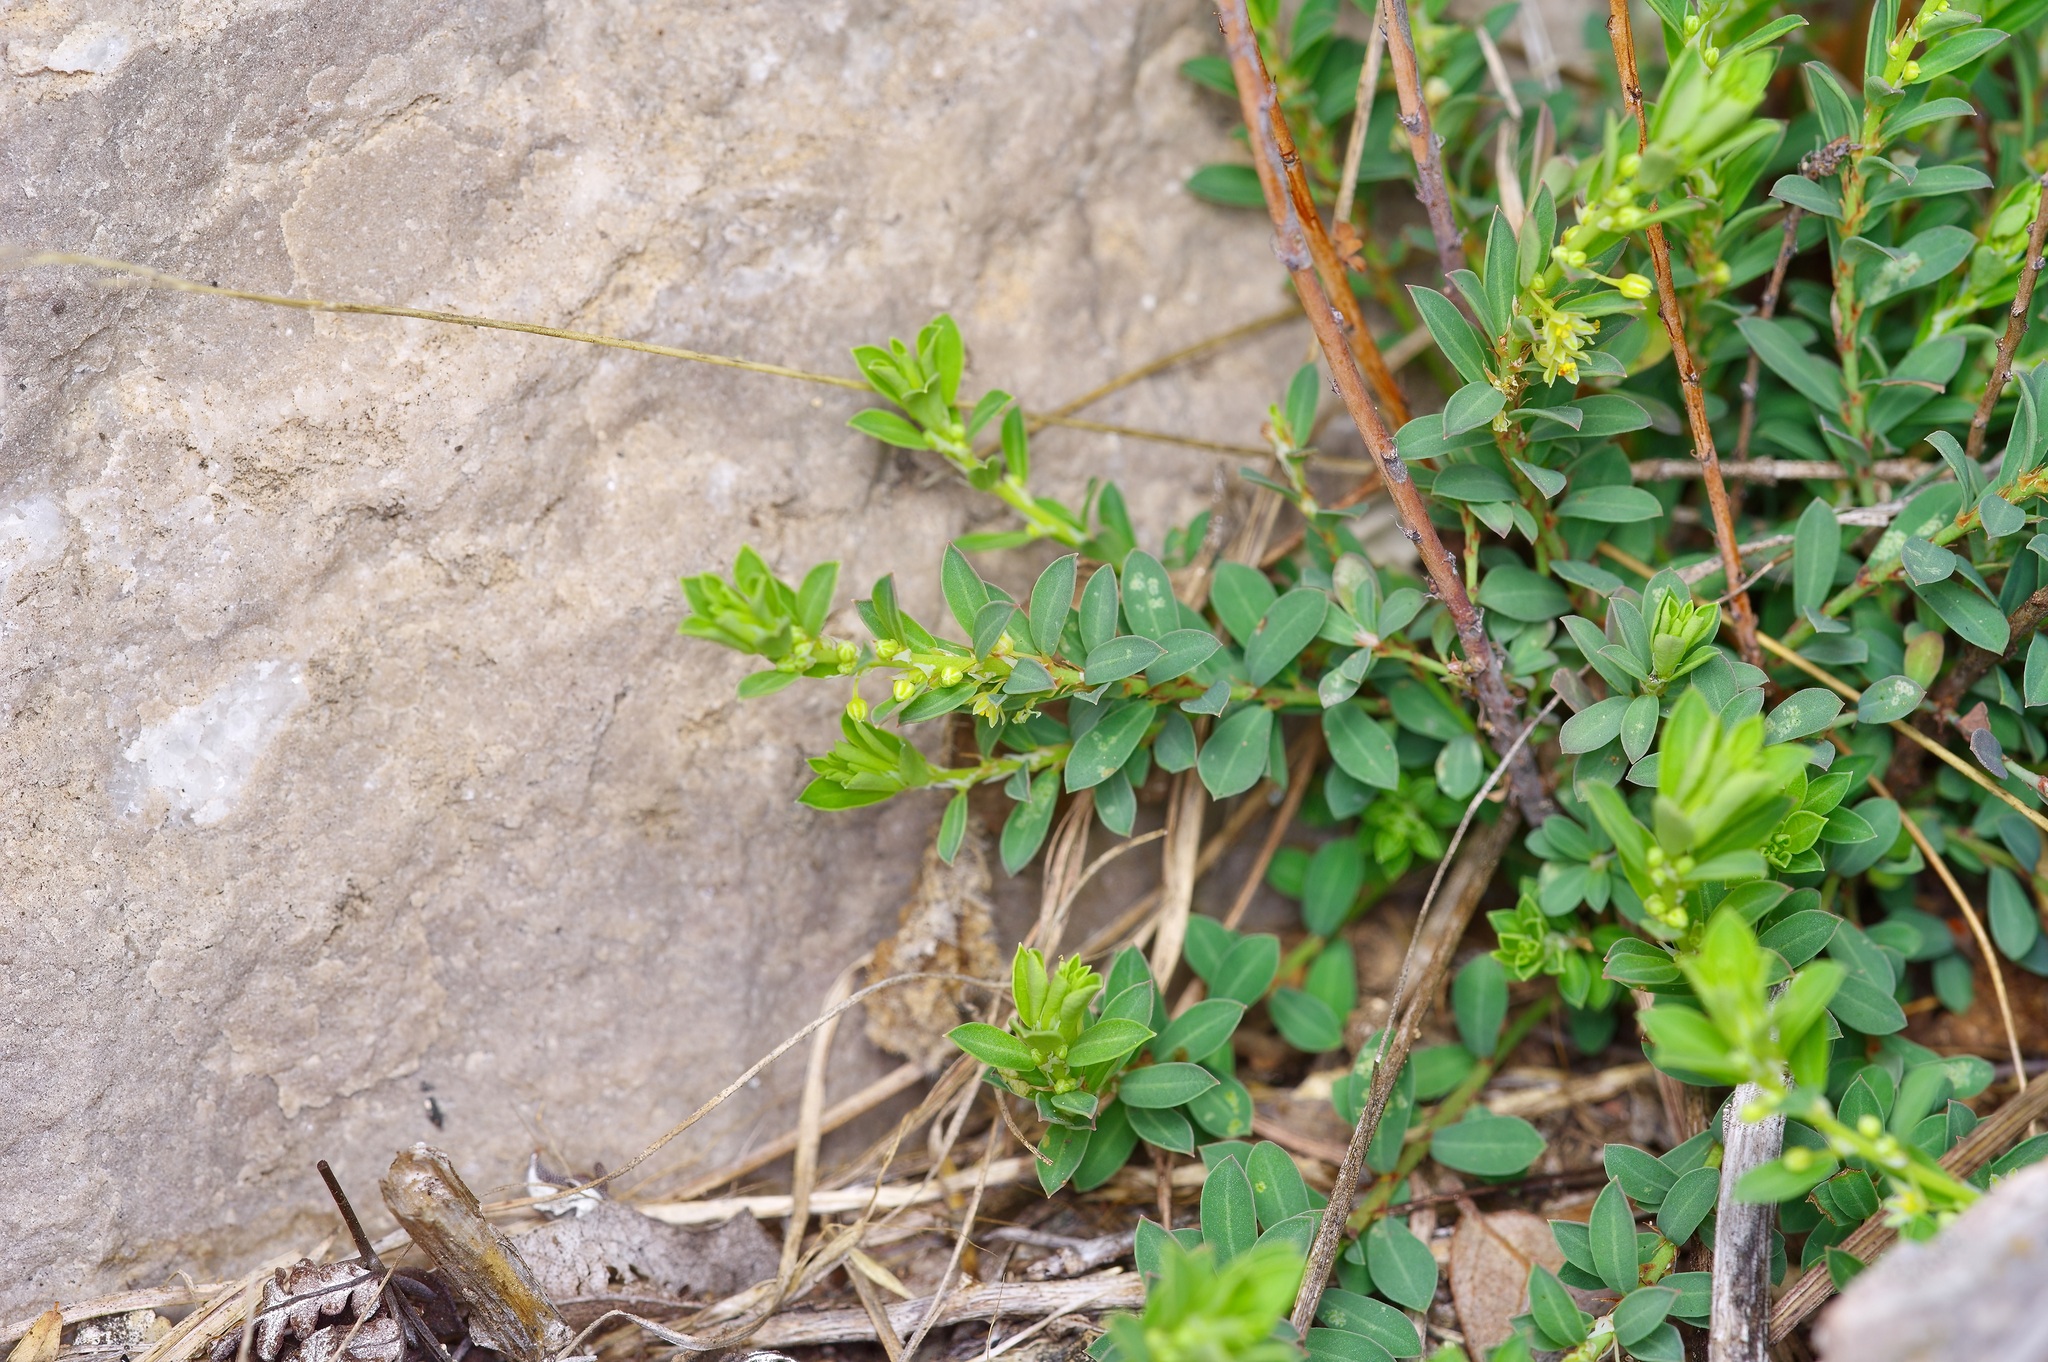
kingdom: Plantae
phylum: Tracheophyta
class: Magnoliopsida
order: Malpighiales
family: Phyllanthaceae
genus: Phyllanthus
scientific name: Phyllanthus polygonoides
